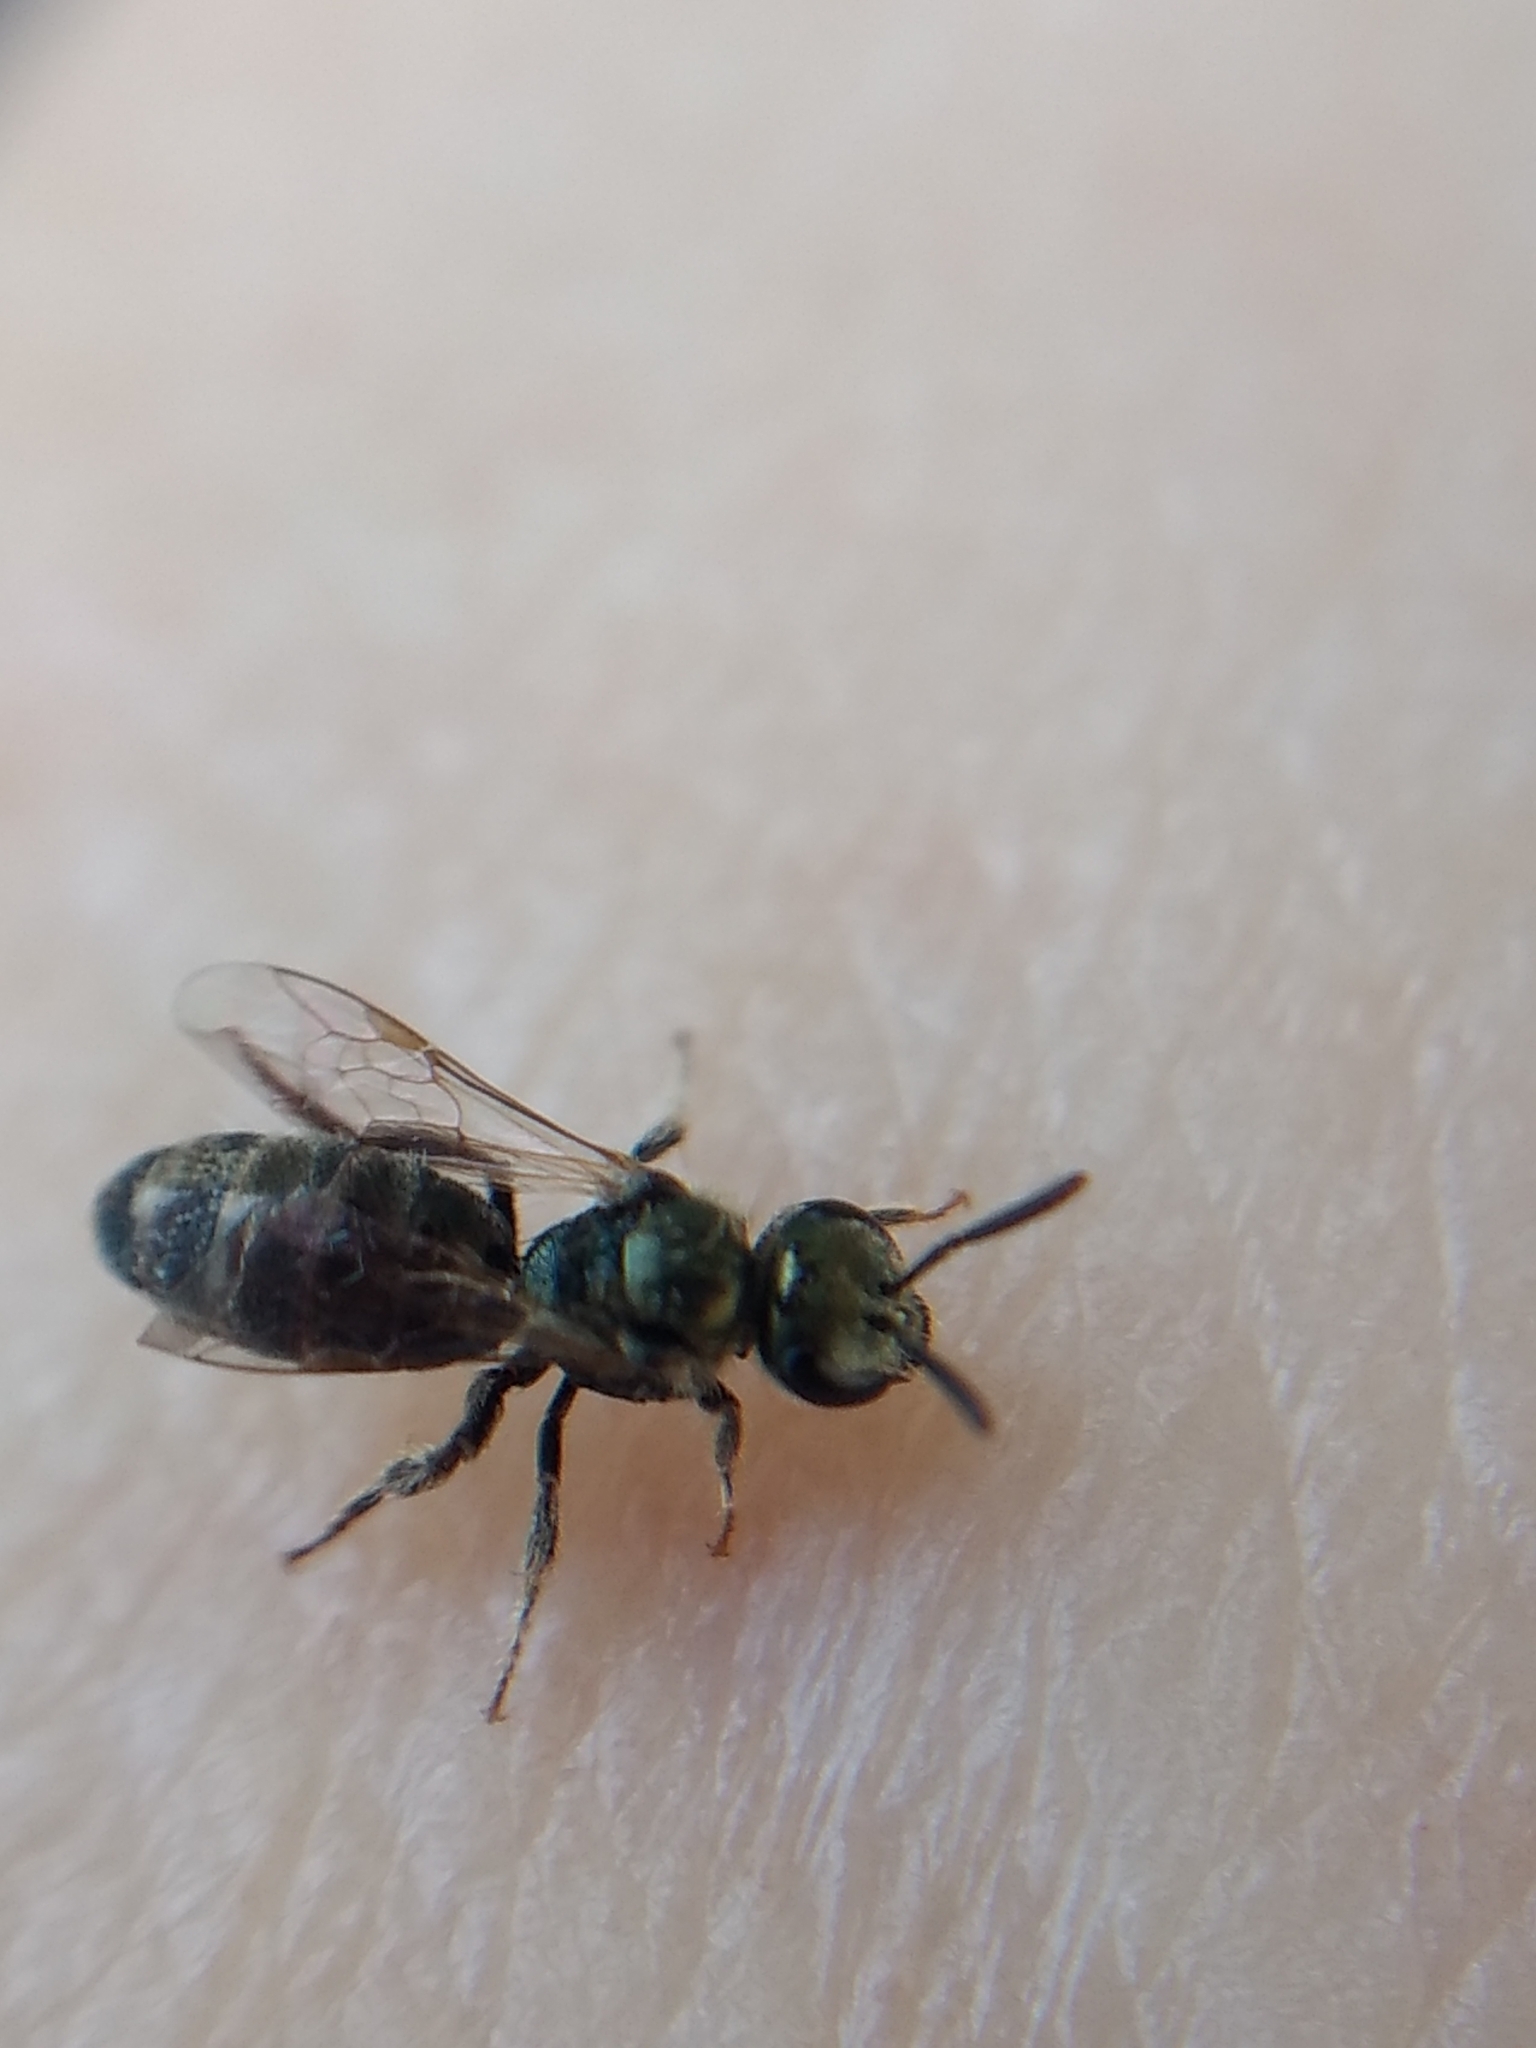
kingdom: Animalia
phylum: Arthropoda
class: Insecta
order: Hymenoptera
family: Halictidae
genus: Dialictus
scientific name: Dialictus
